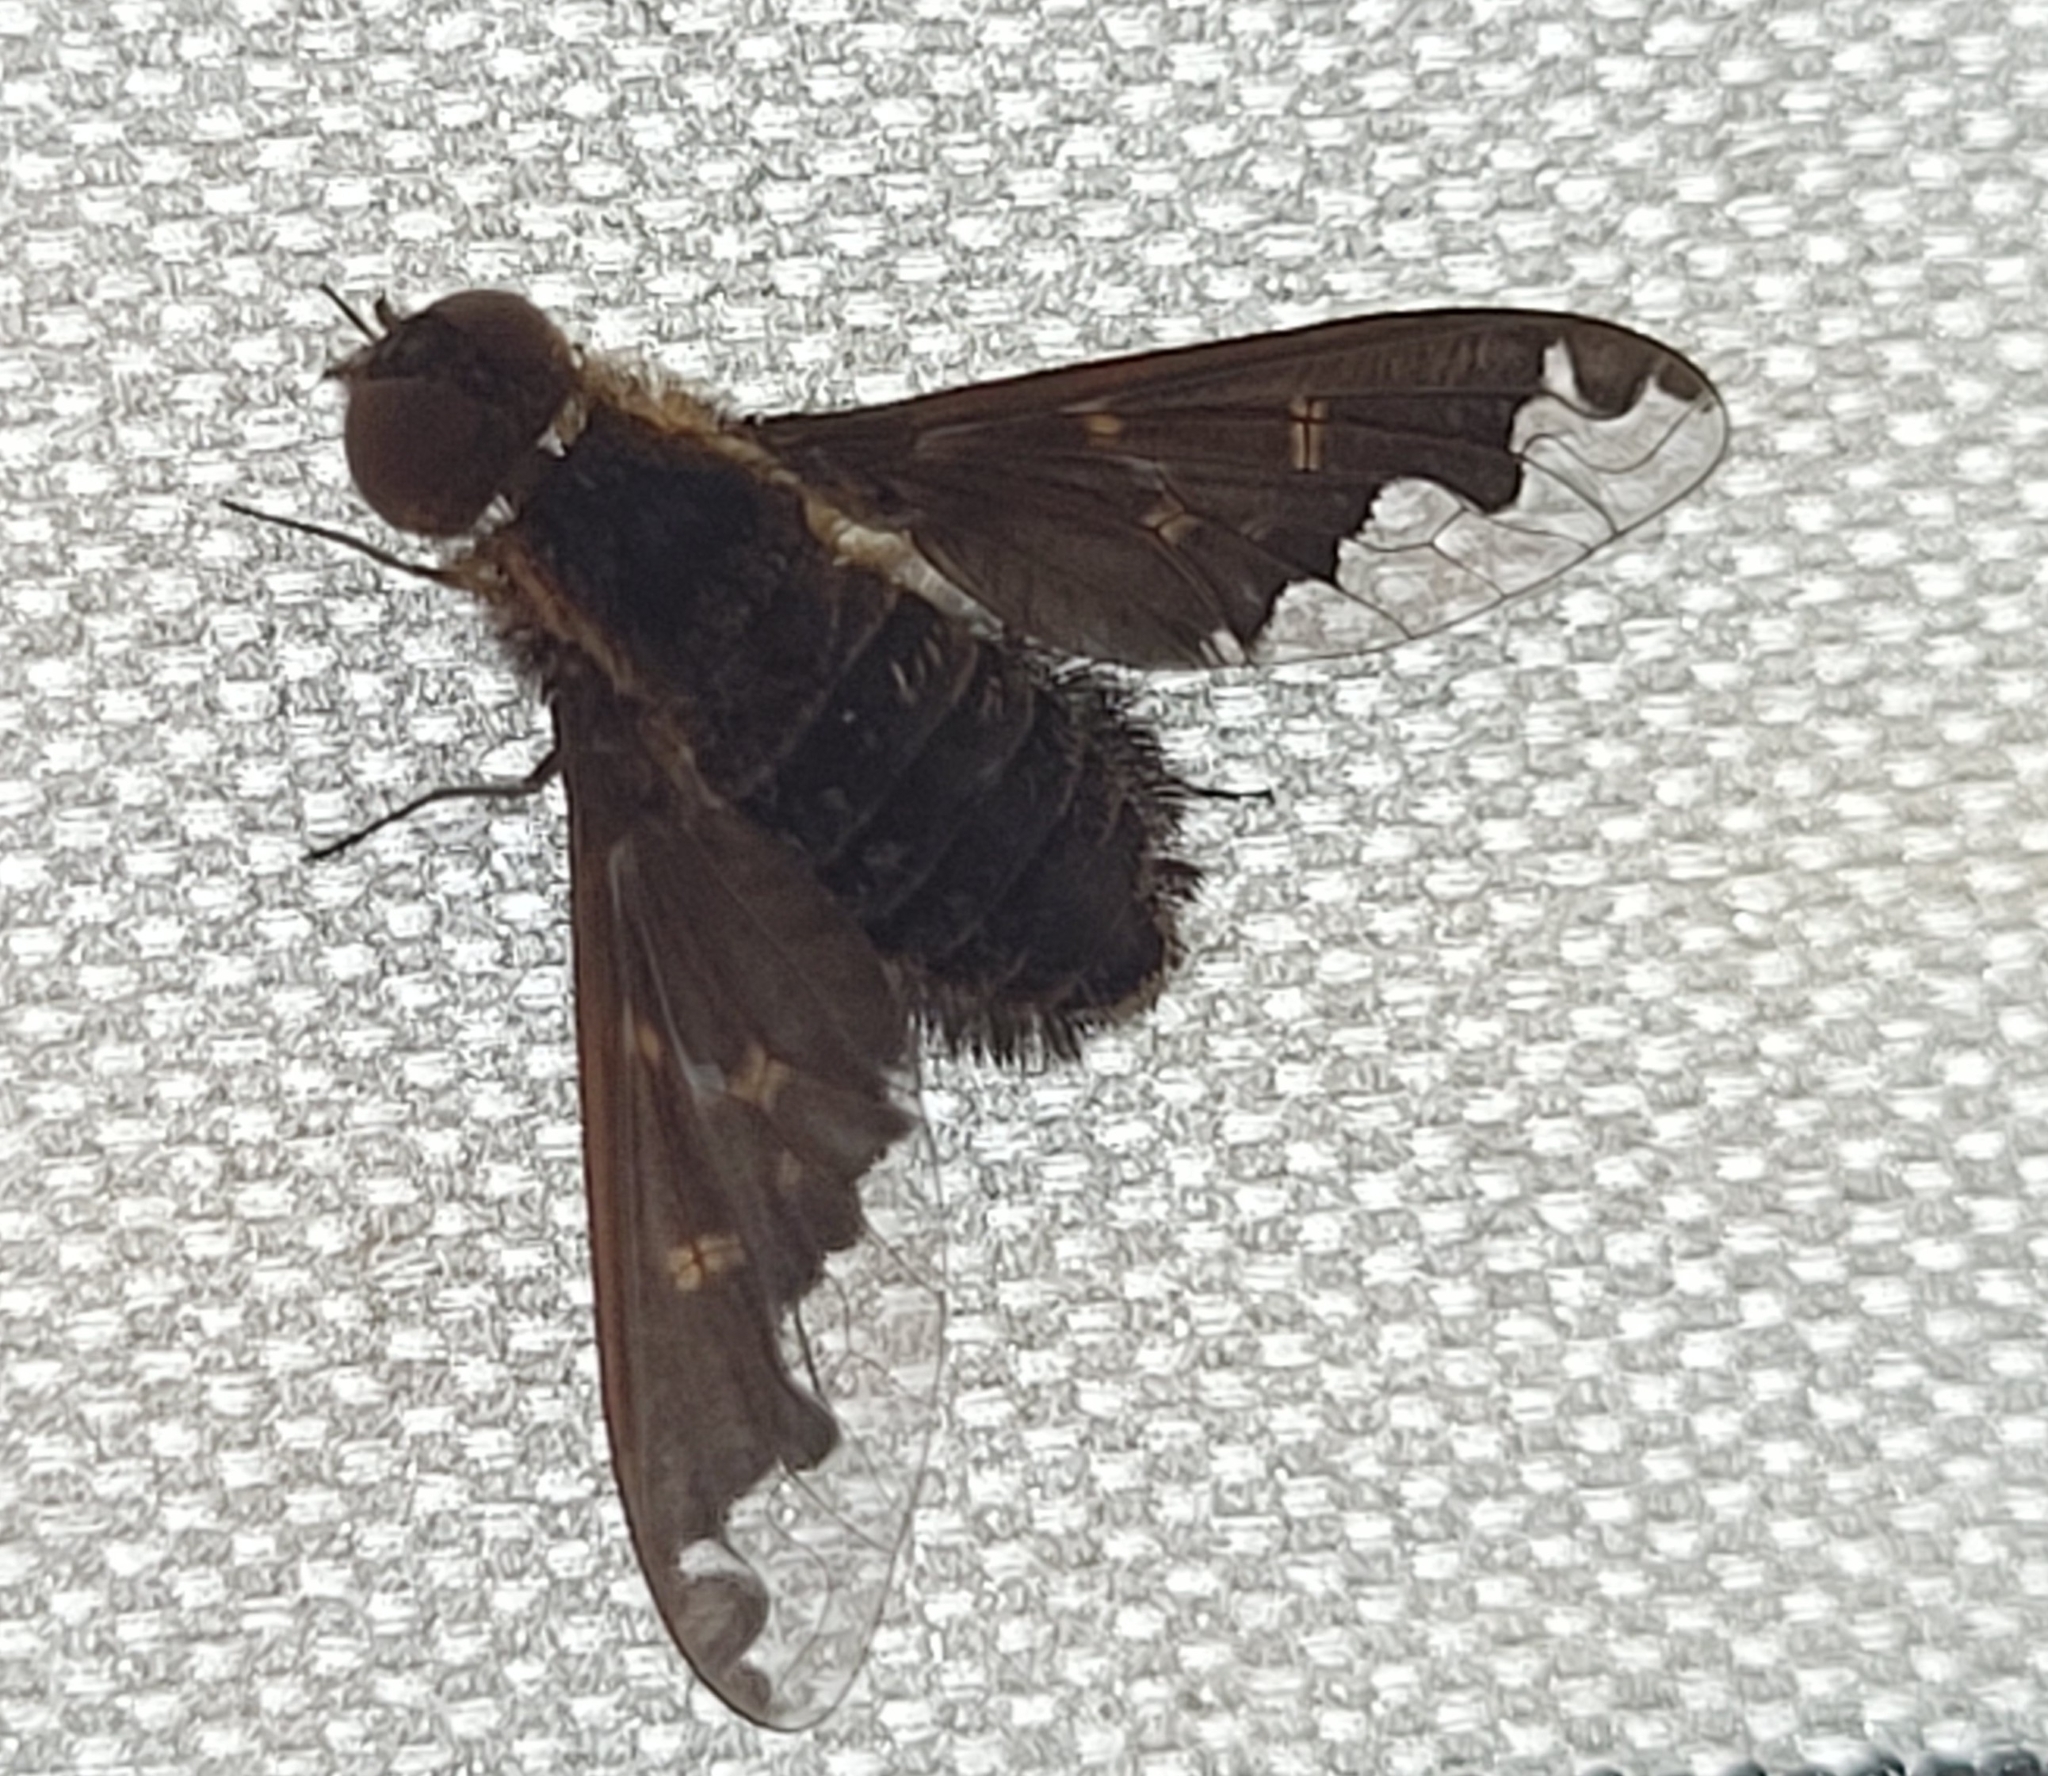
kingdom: Animalia
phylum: Arthropoda
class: Insecta
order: Diptera
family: Bombyliidae
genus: Hemipenthes
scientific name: Hemipenthes sinuosus
